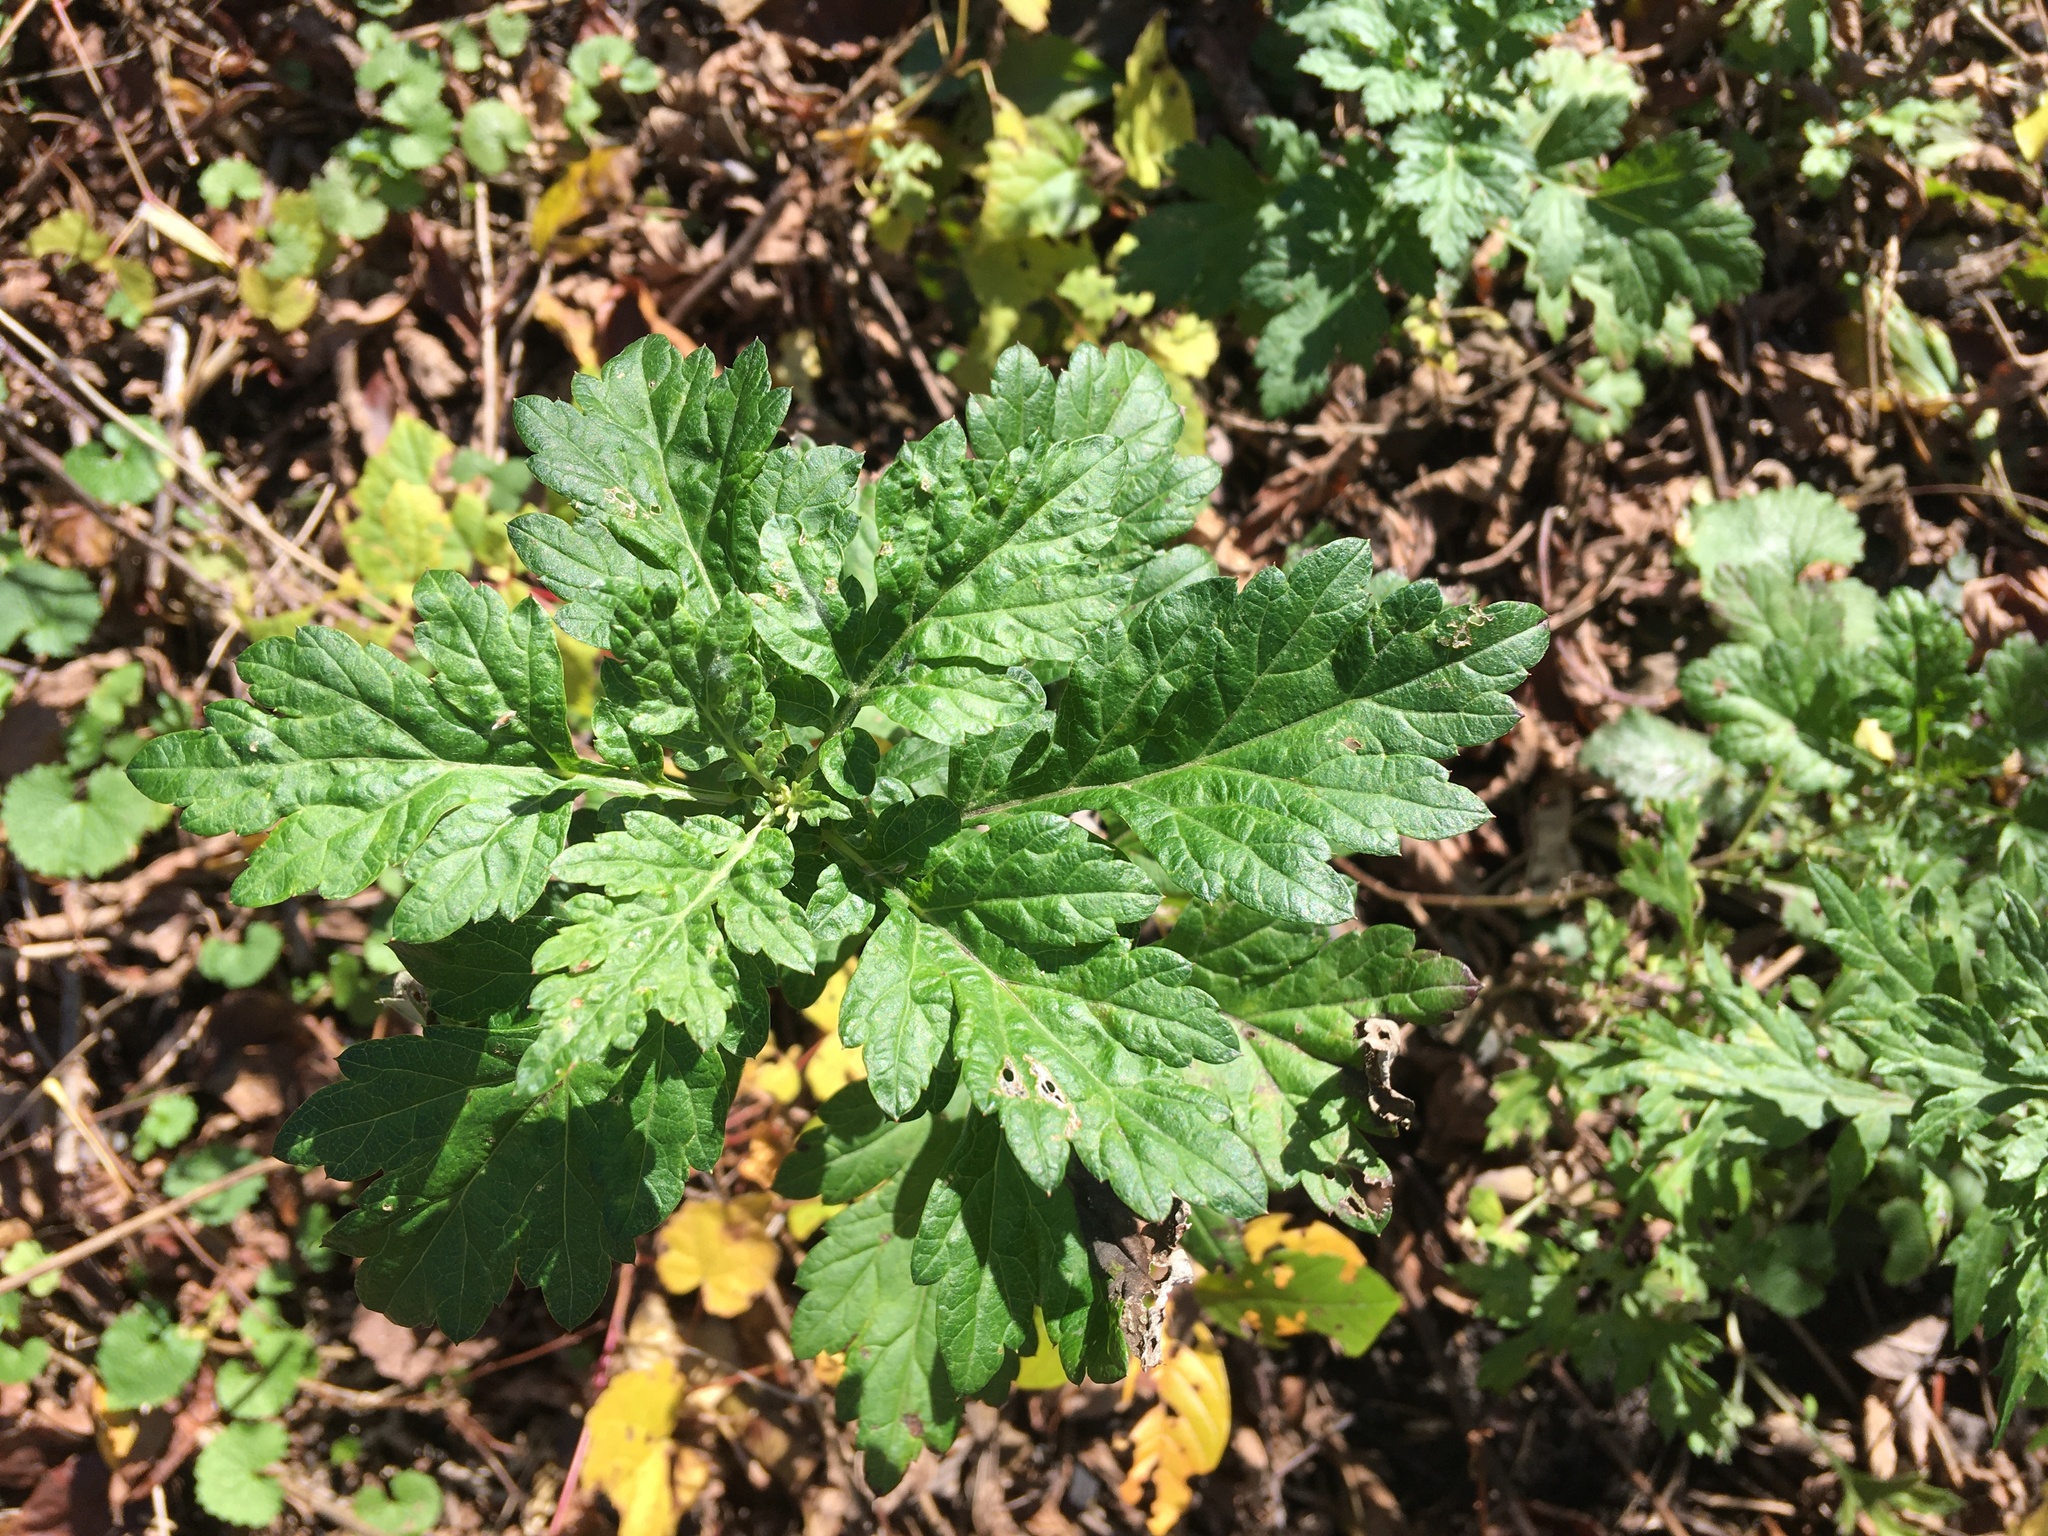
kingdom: Plantae
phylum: Tracheophyta
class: Magnoliopsida
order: Asterales
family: Asteraceae
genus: Artemisia
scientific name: Artemisia vulgaris
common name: Mugwort
